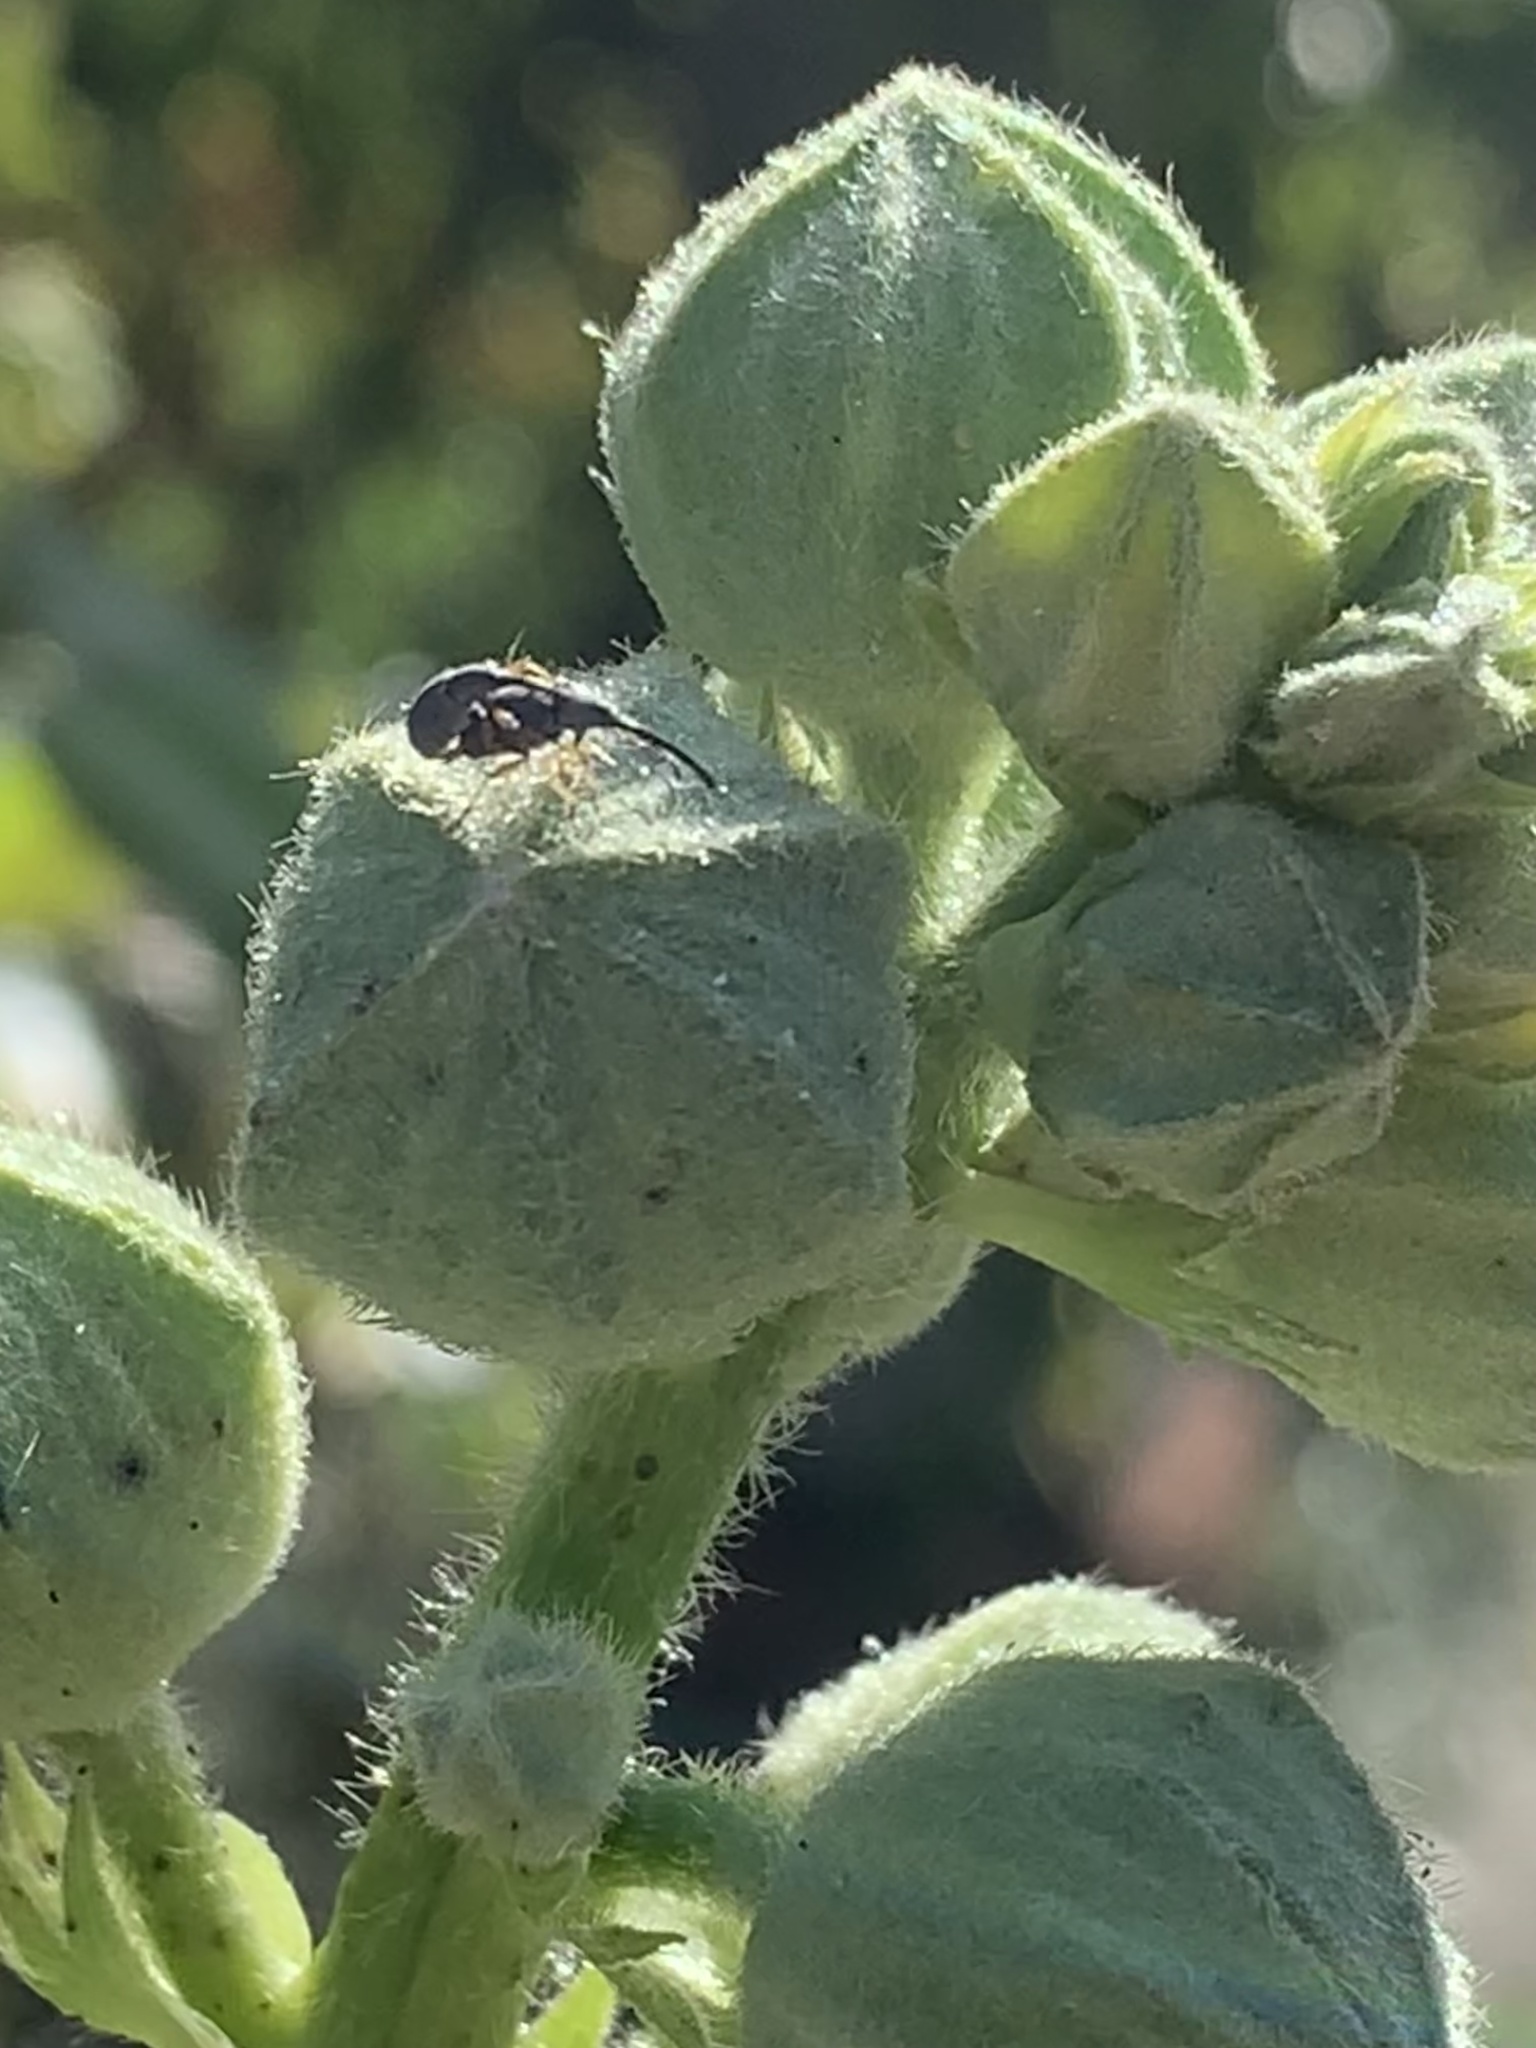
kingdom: Animalia
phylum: Arthropoda
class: Insecta
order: Coleoptera
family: Brentidae
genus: Rhopalapion
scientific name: Rhopalapion longirostre
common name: Hollyhock weevil
